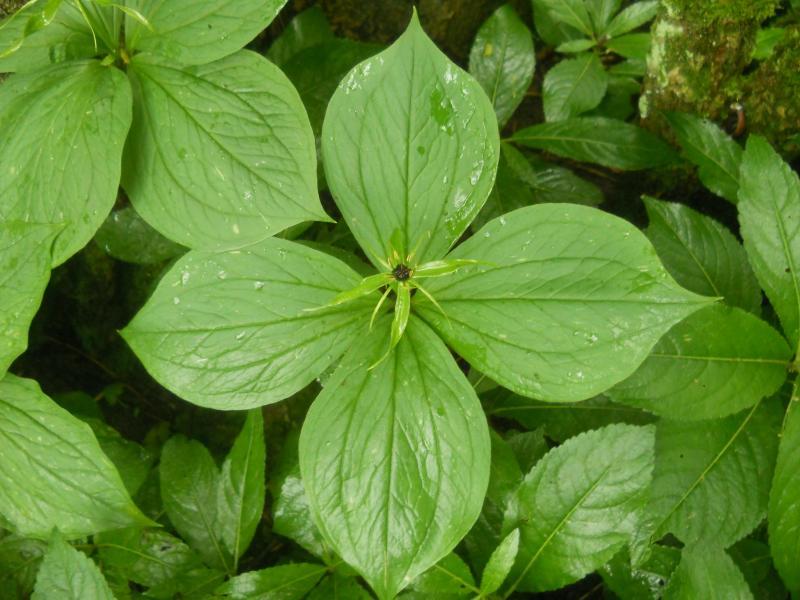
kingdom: Plantae
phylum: Tracheophyta
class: Liliopsida
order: Liliales
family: Melanthiaceae
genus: Paris
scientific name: Paris quadrifolia
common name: Herb-paris
